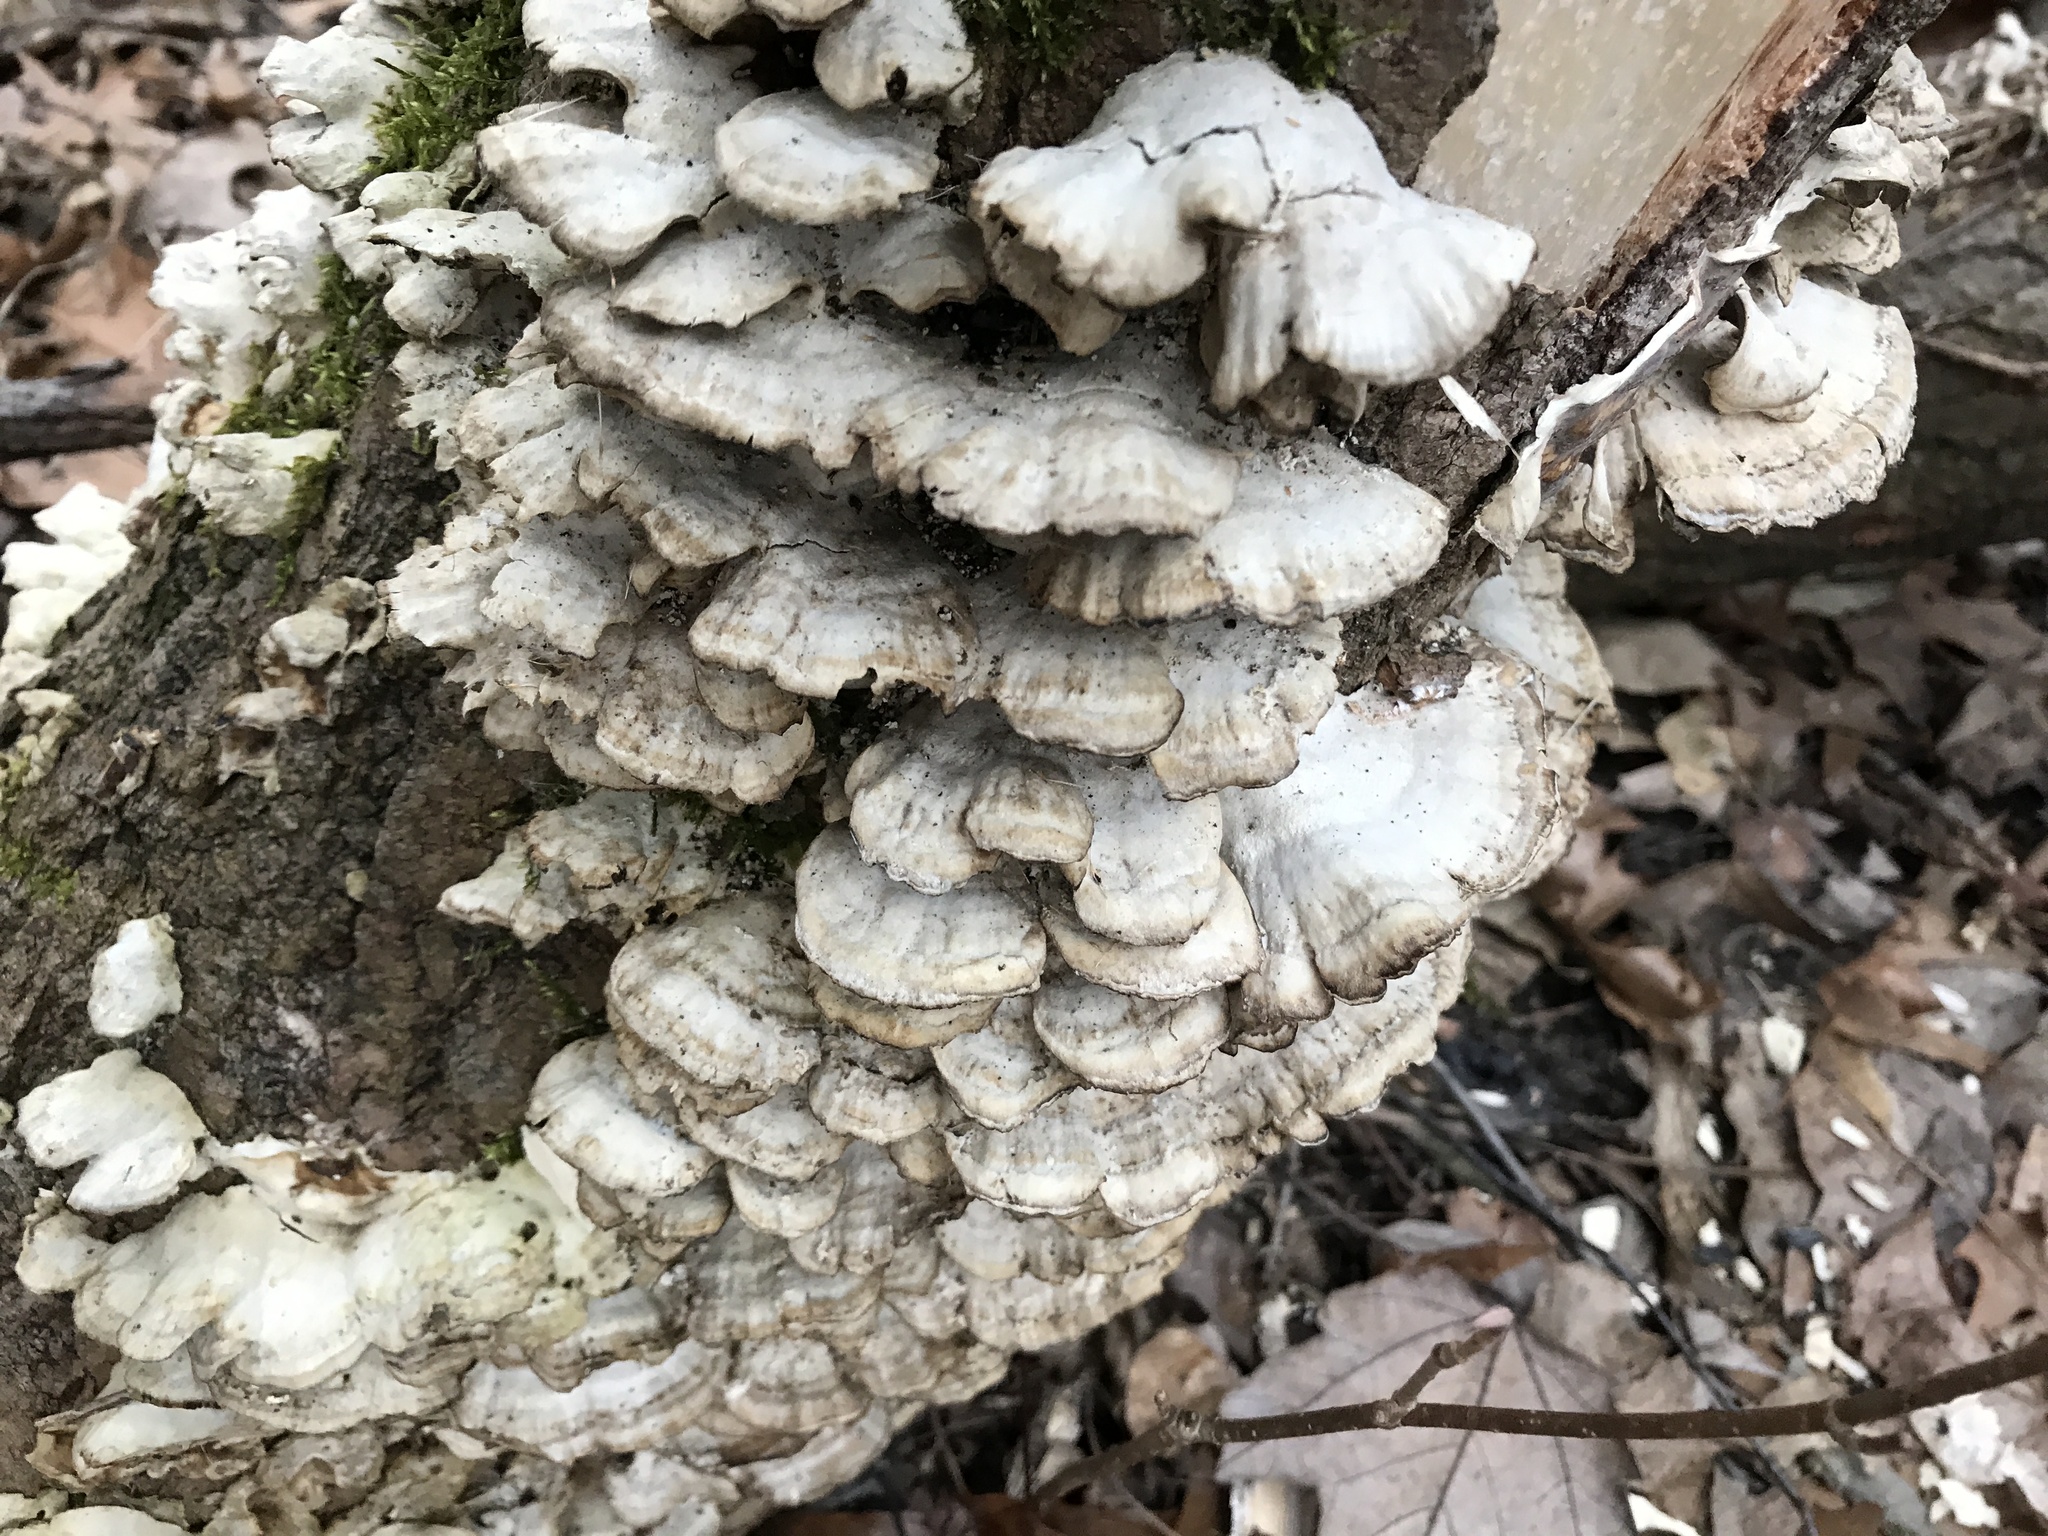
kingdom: Fungi
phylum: Basidiomycota
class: Agaricomycetes
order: Polyporales
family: Polyporaceae
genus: Trametes
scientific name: Trametes hirsuta
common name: Hairy bracket
